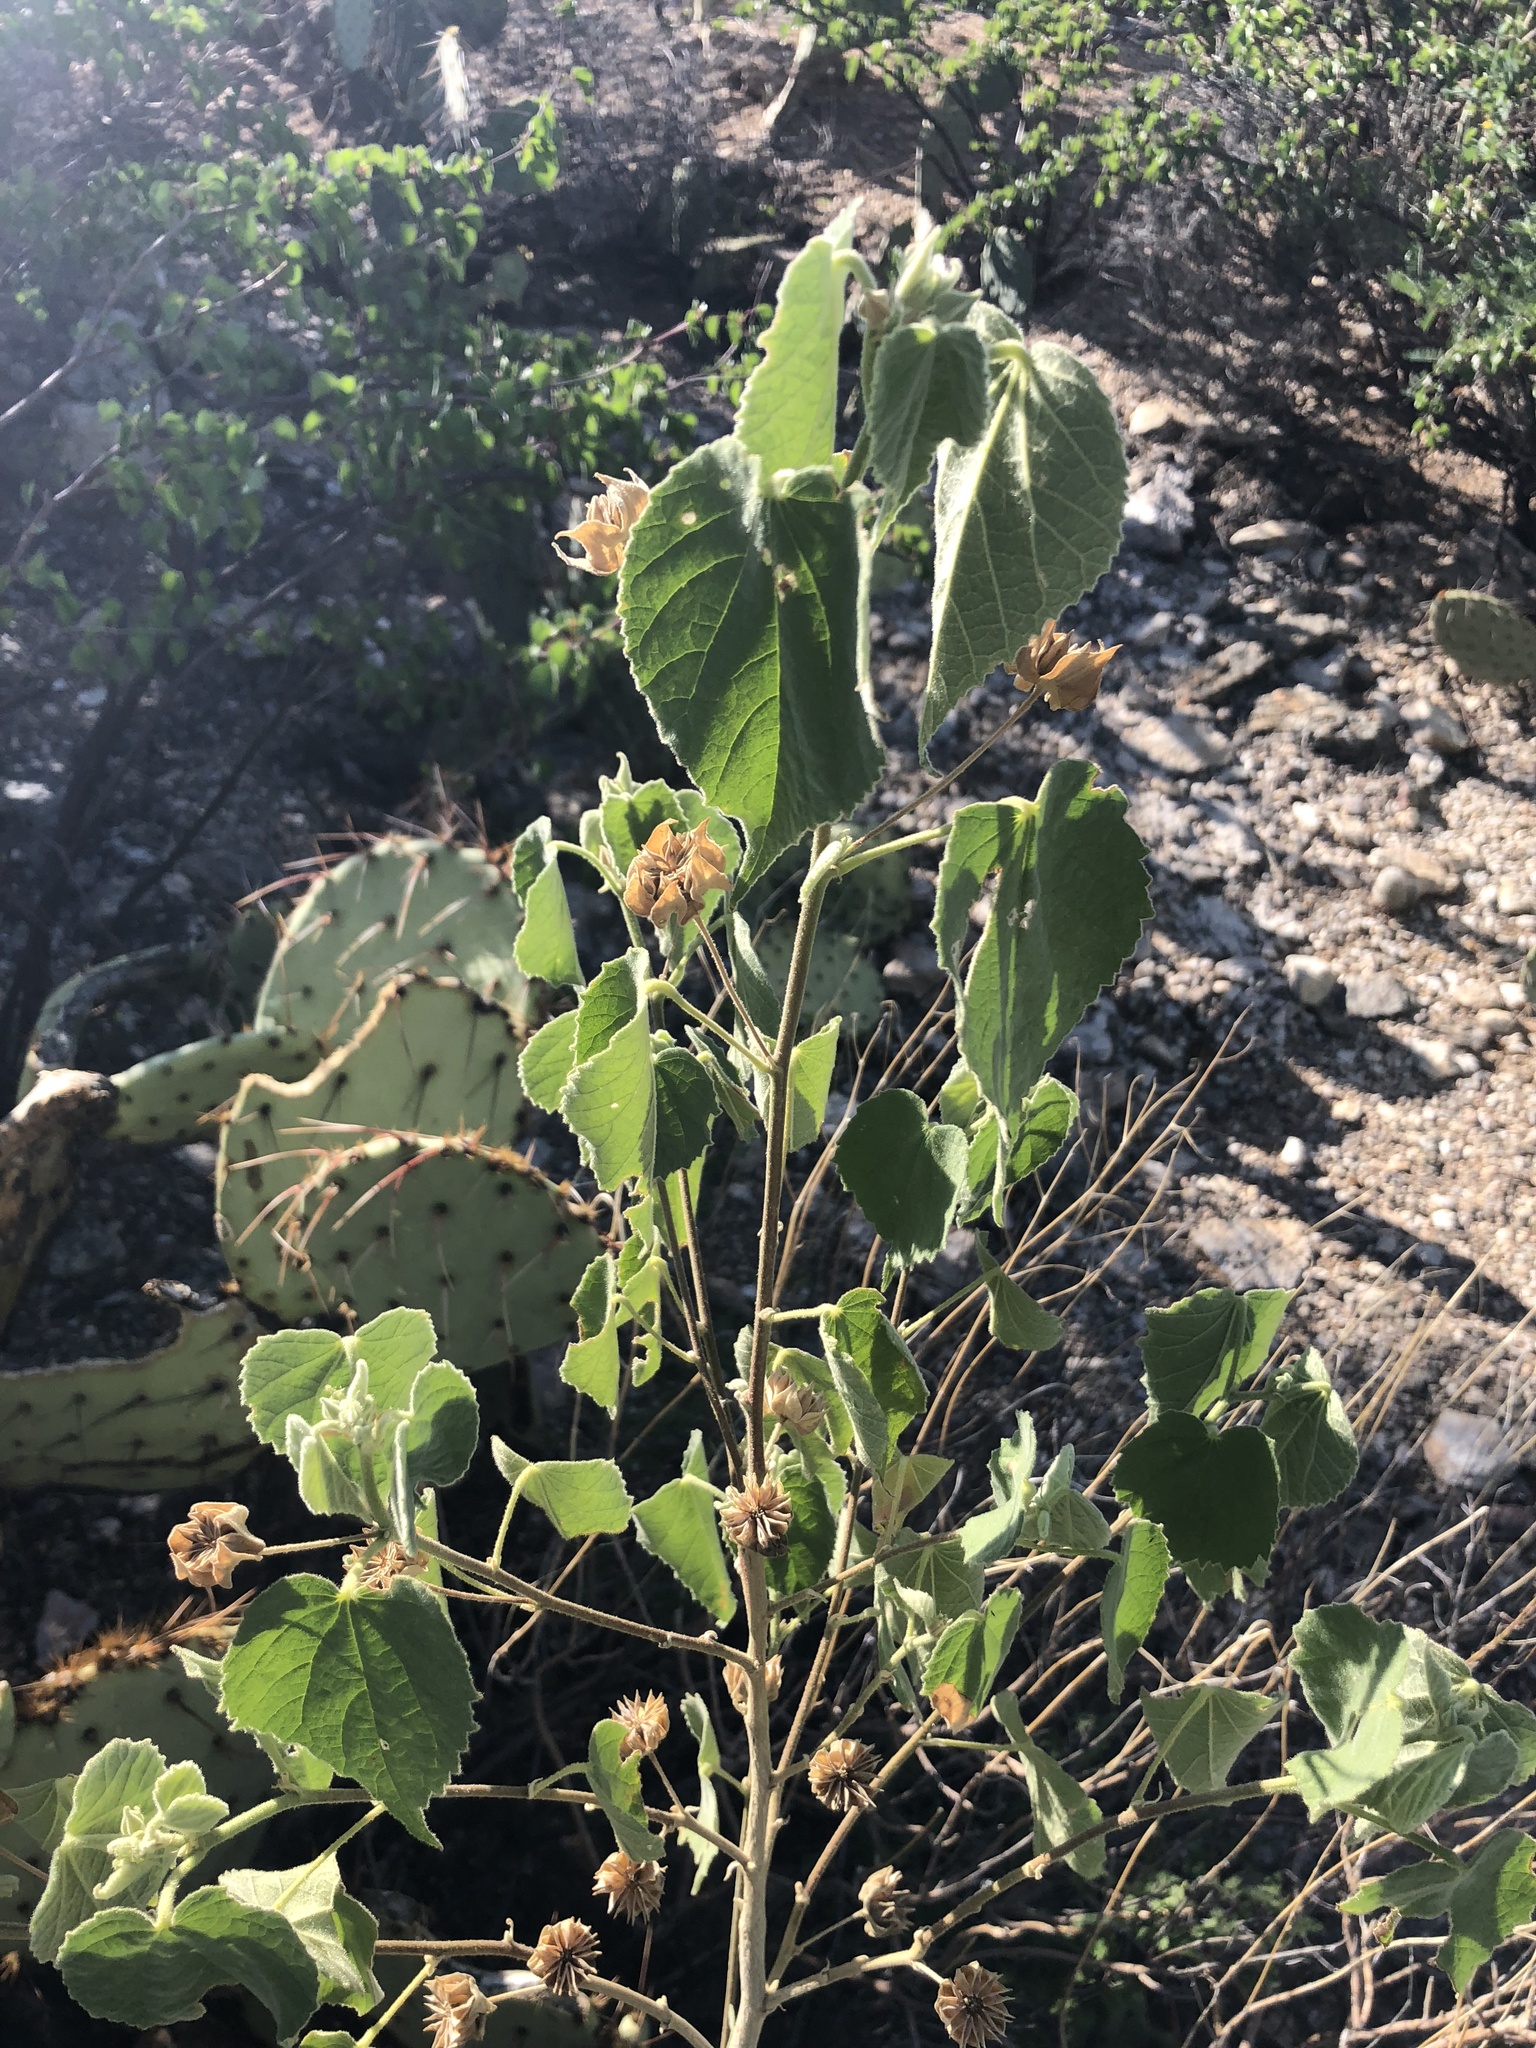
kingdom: Plantae
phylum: Tracheophyta
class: Magnoliopsida
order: Malvales
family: Malvaceae
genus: Abutilon
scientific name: Abutilon abutiloides
